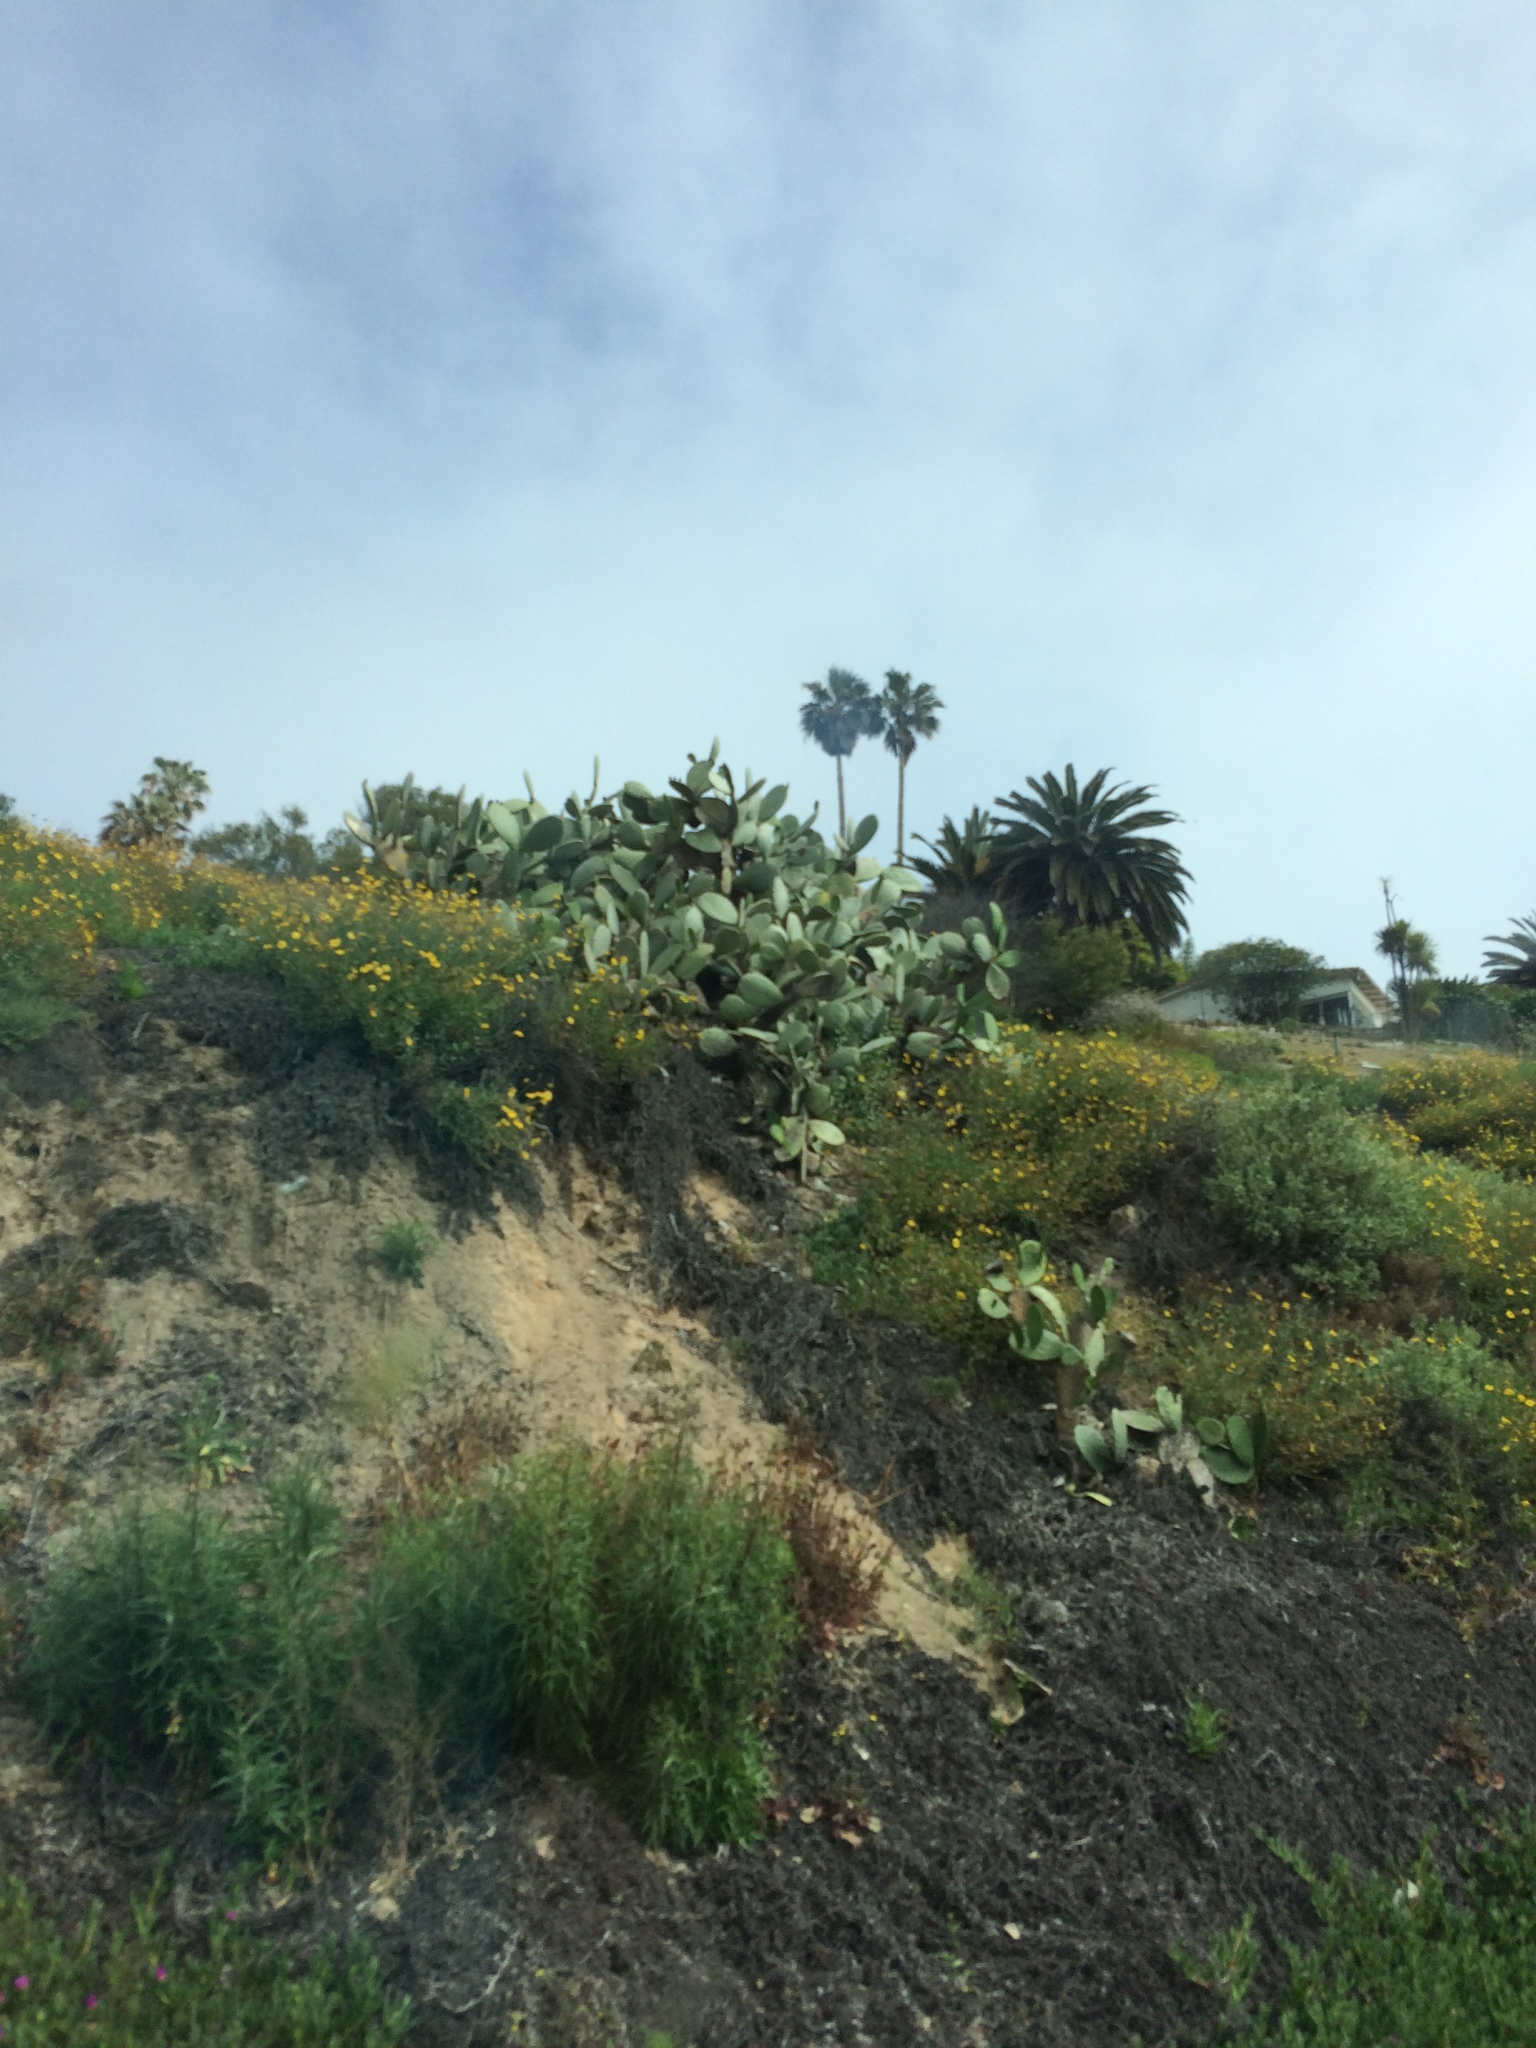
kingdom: Plantae
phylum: Tracheophyta
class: Magnoliopsida
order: Asterales
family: Asteraceae
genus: Encelia
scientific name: Encelia californica
